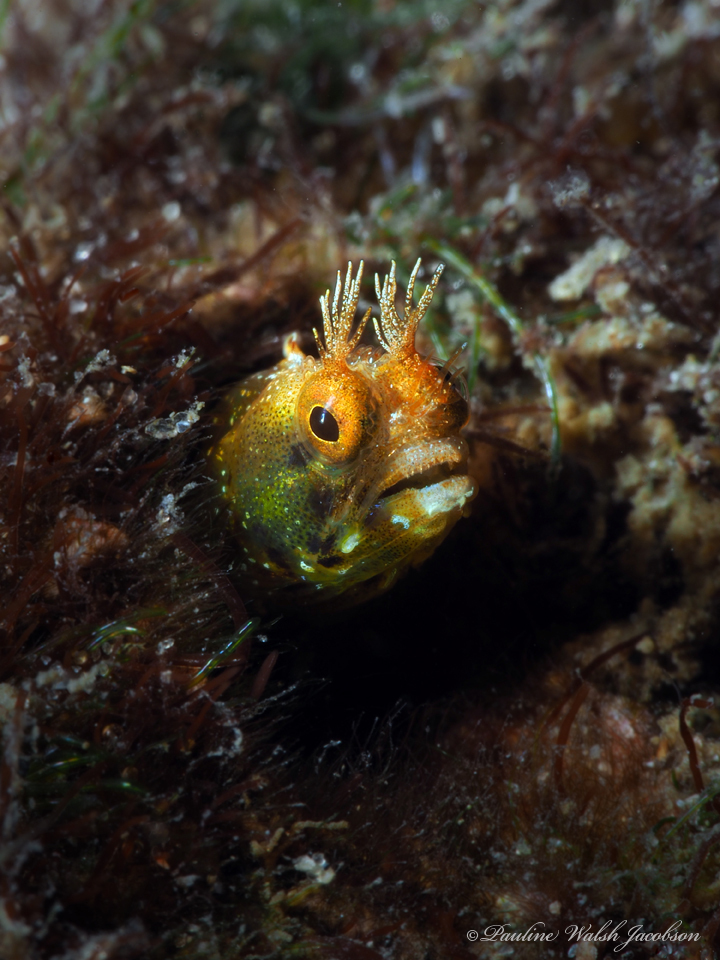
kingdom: Animalia
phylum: Chordata
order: Perciformes
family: Chaenopsidae
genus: Acanthemblemaria
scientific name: Acanthemblemaria aspera
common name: Roughhead blenny
